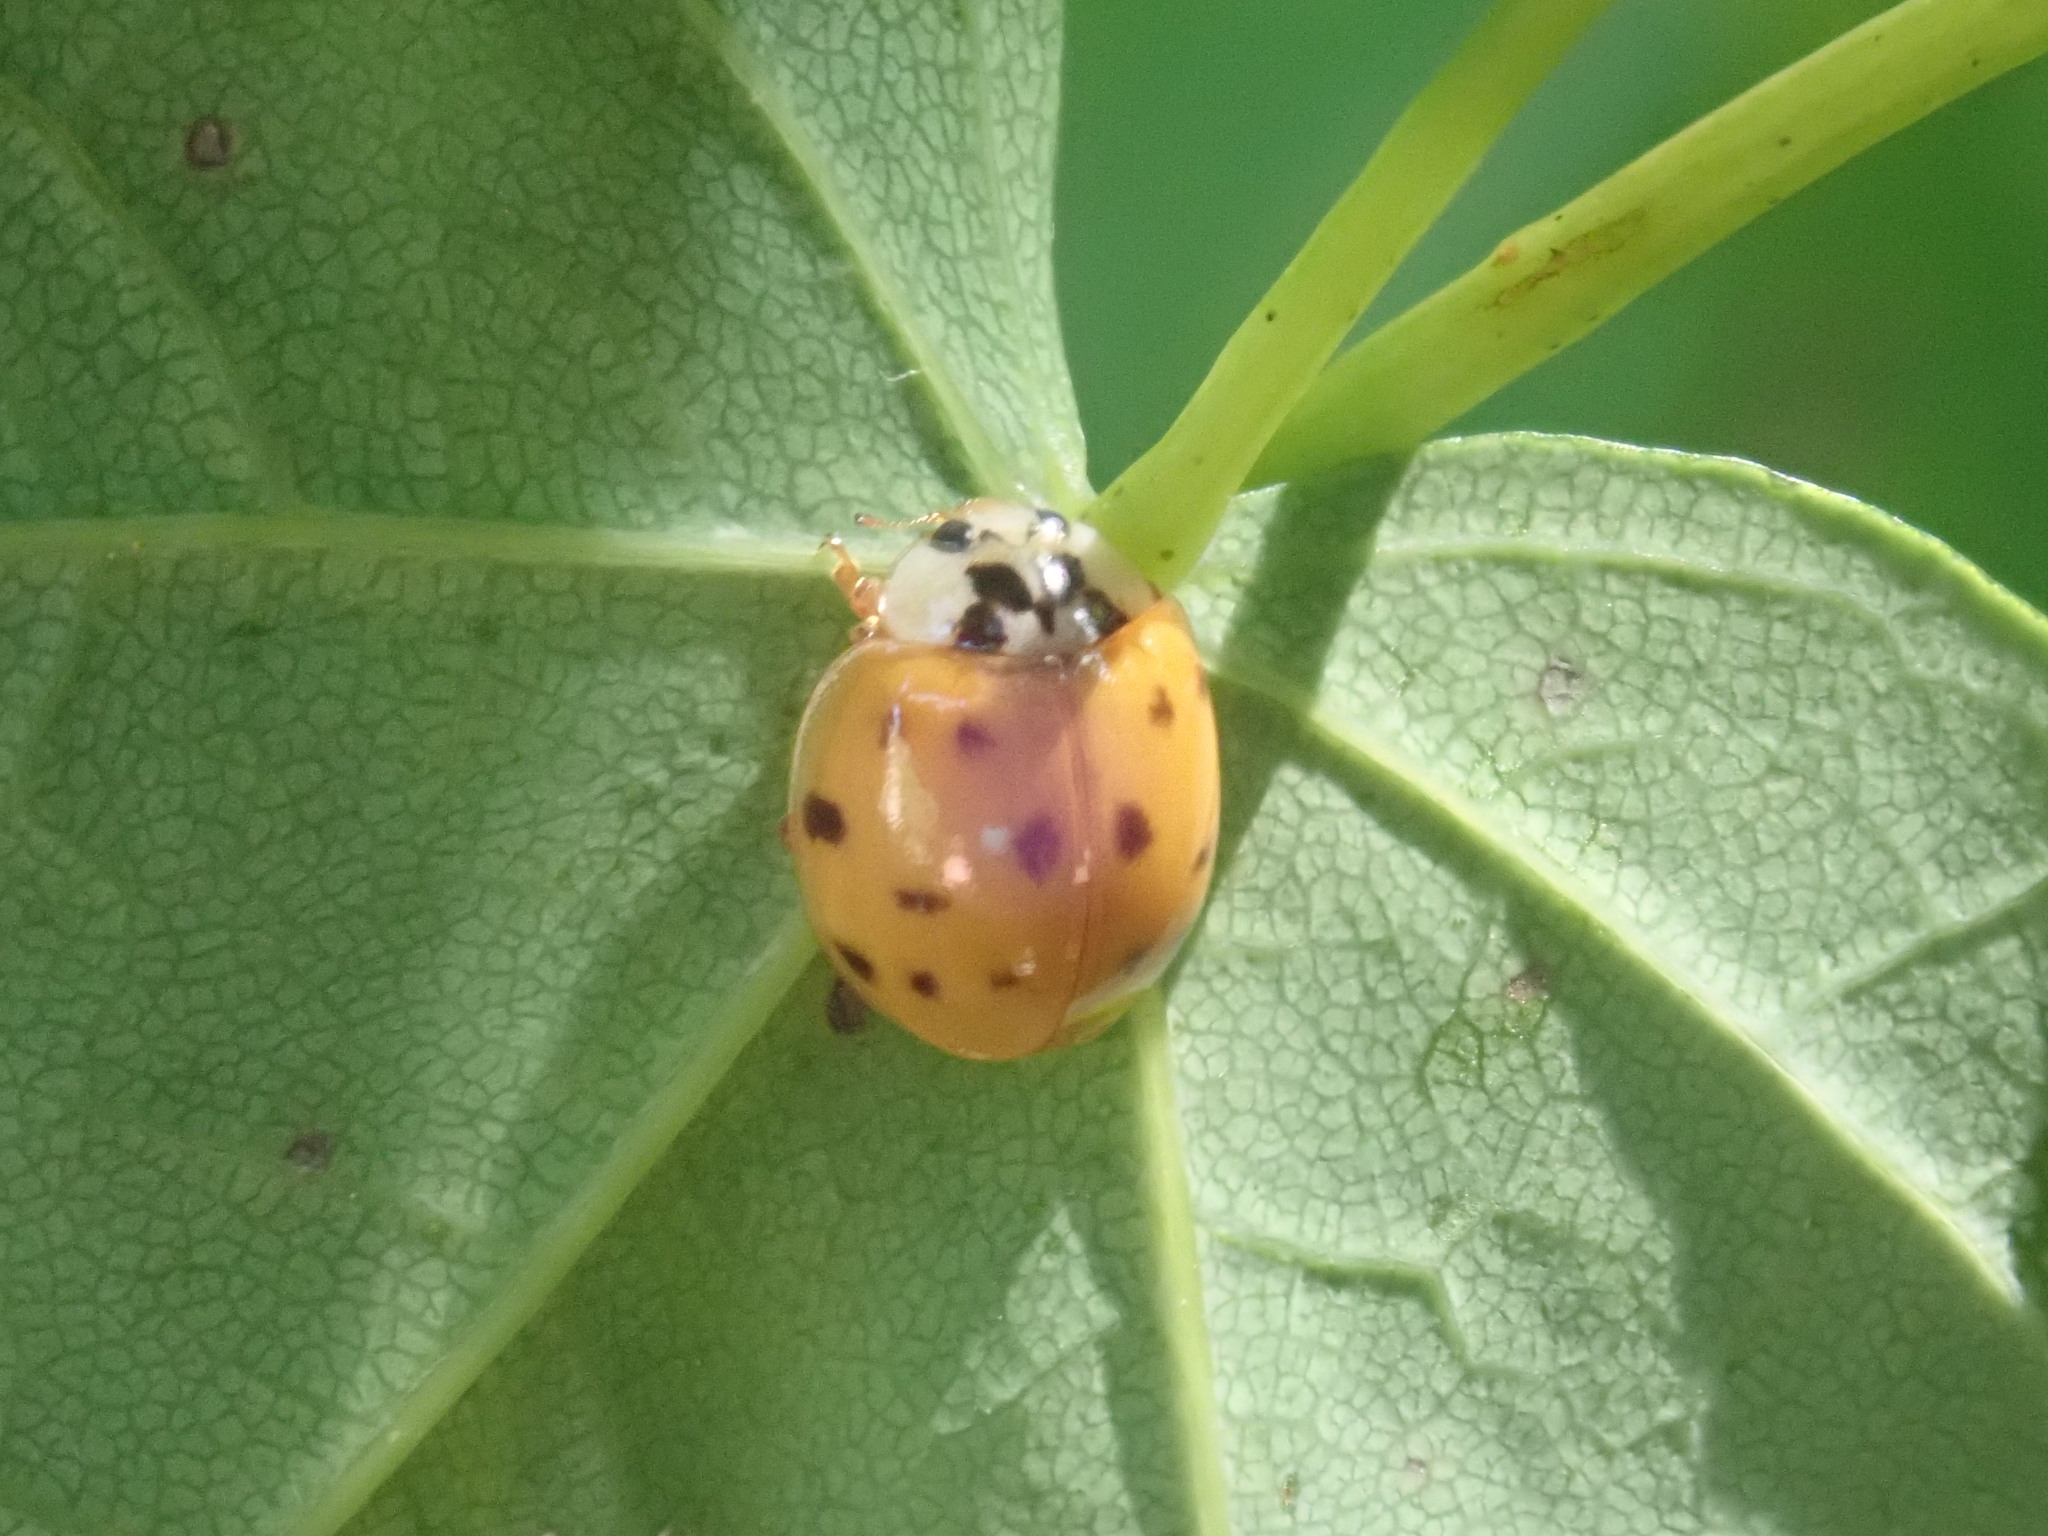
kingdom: Animalia
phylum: Arthropoda
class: Insecta
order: Coleoptera
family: Coccinellidae
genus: Harmonia
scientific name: Harmonia axyridis
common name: Harlequin ladybird
